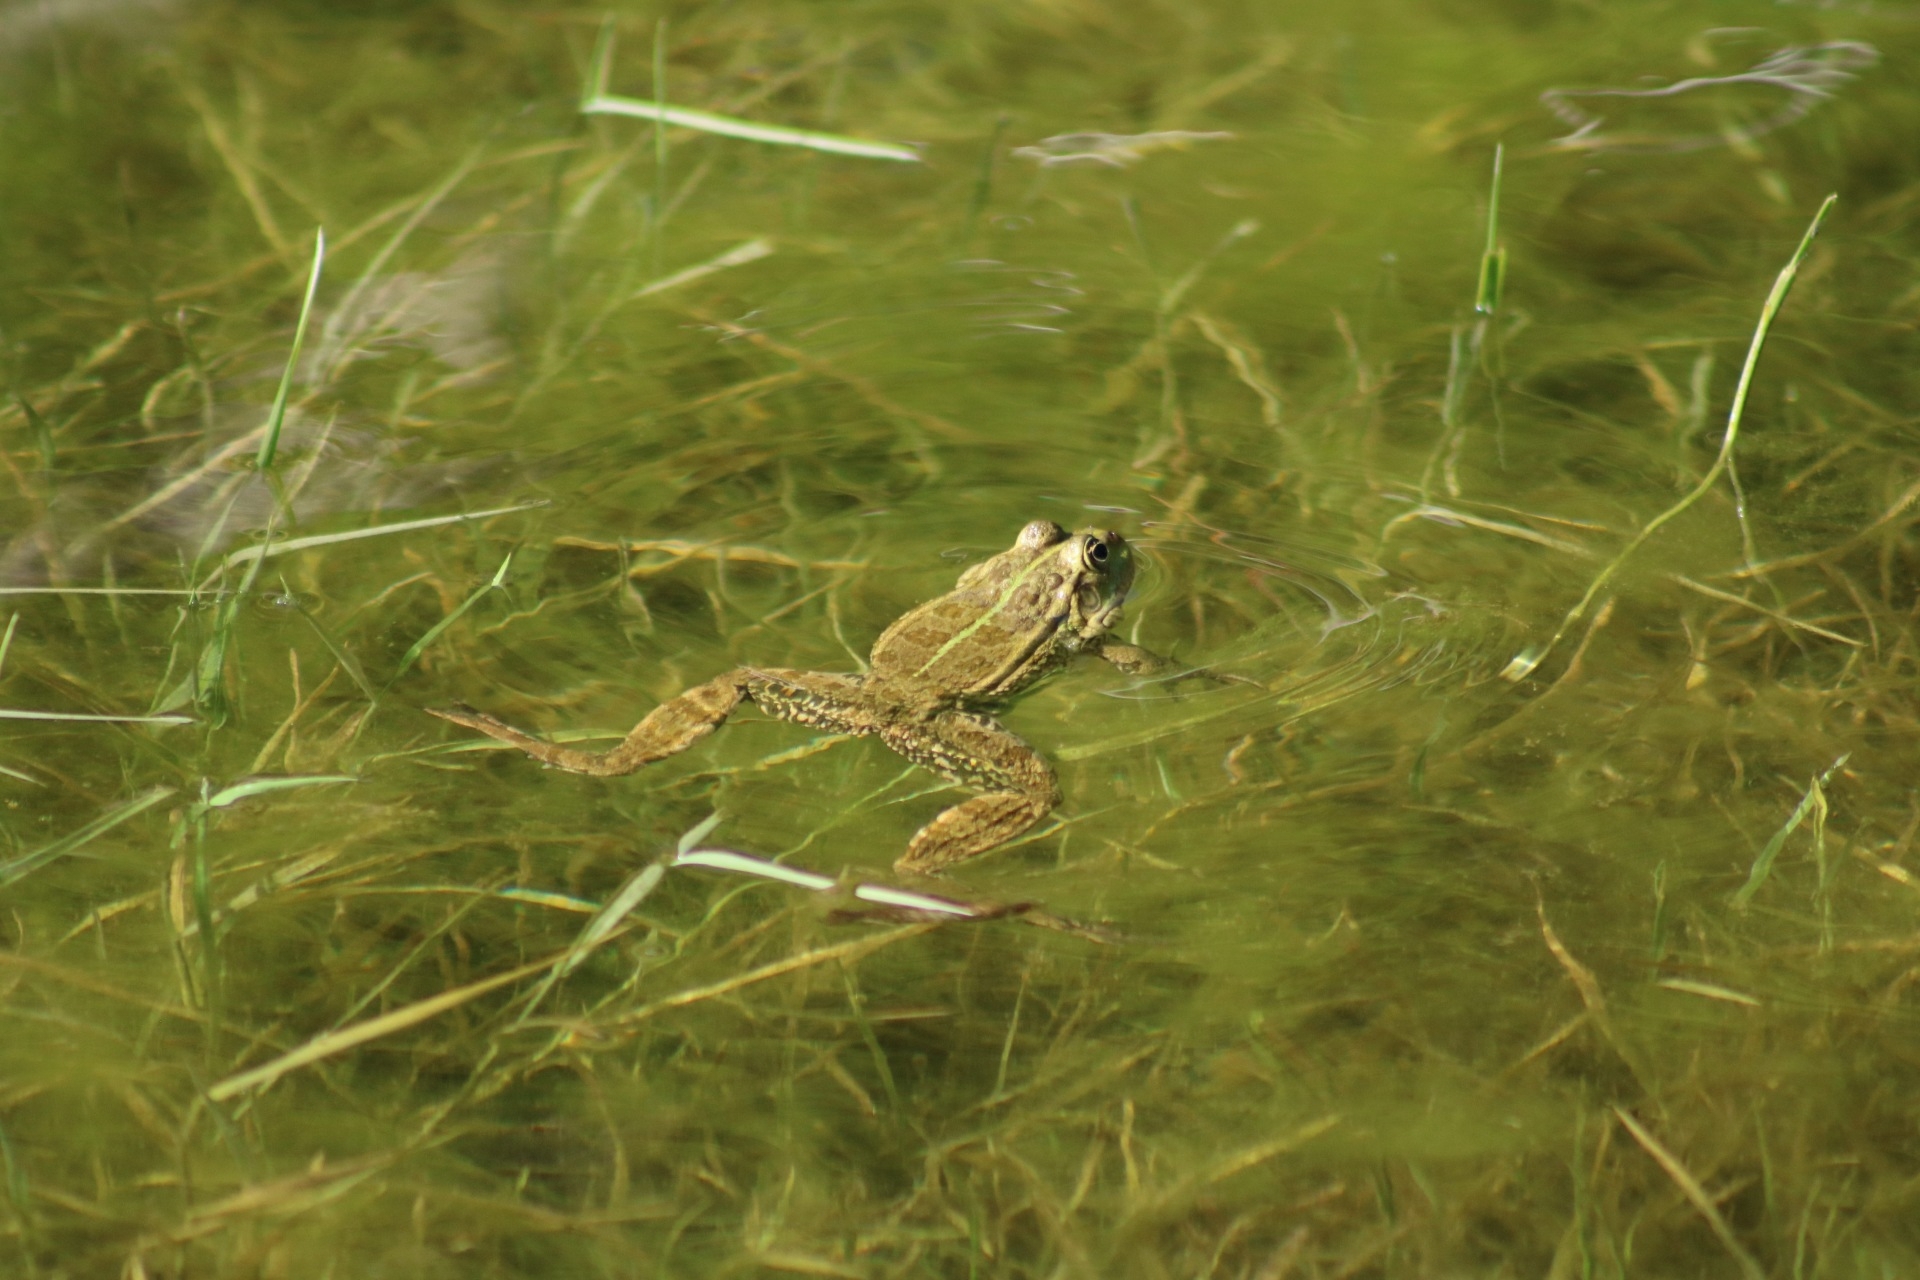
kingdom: Animalia
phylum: Chordata
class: Amphibia
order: Anura
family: Ranidae
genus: Pelophylax
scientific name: Pelophylax ridibundus
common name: Marsh frog
